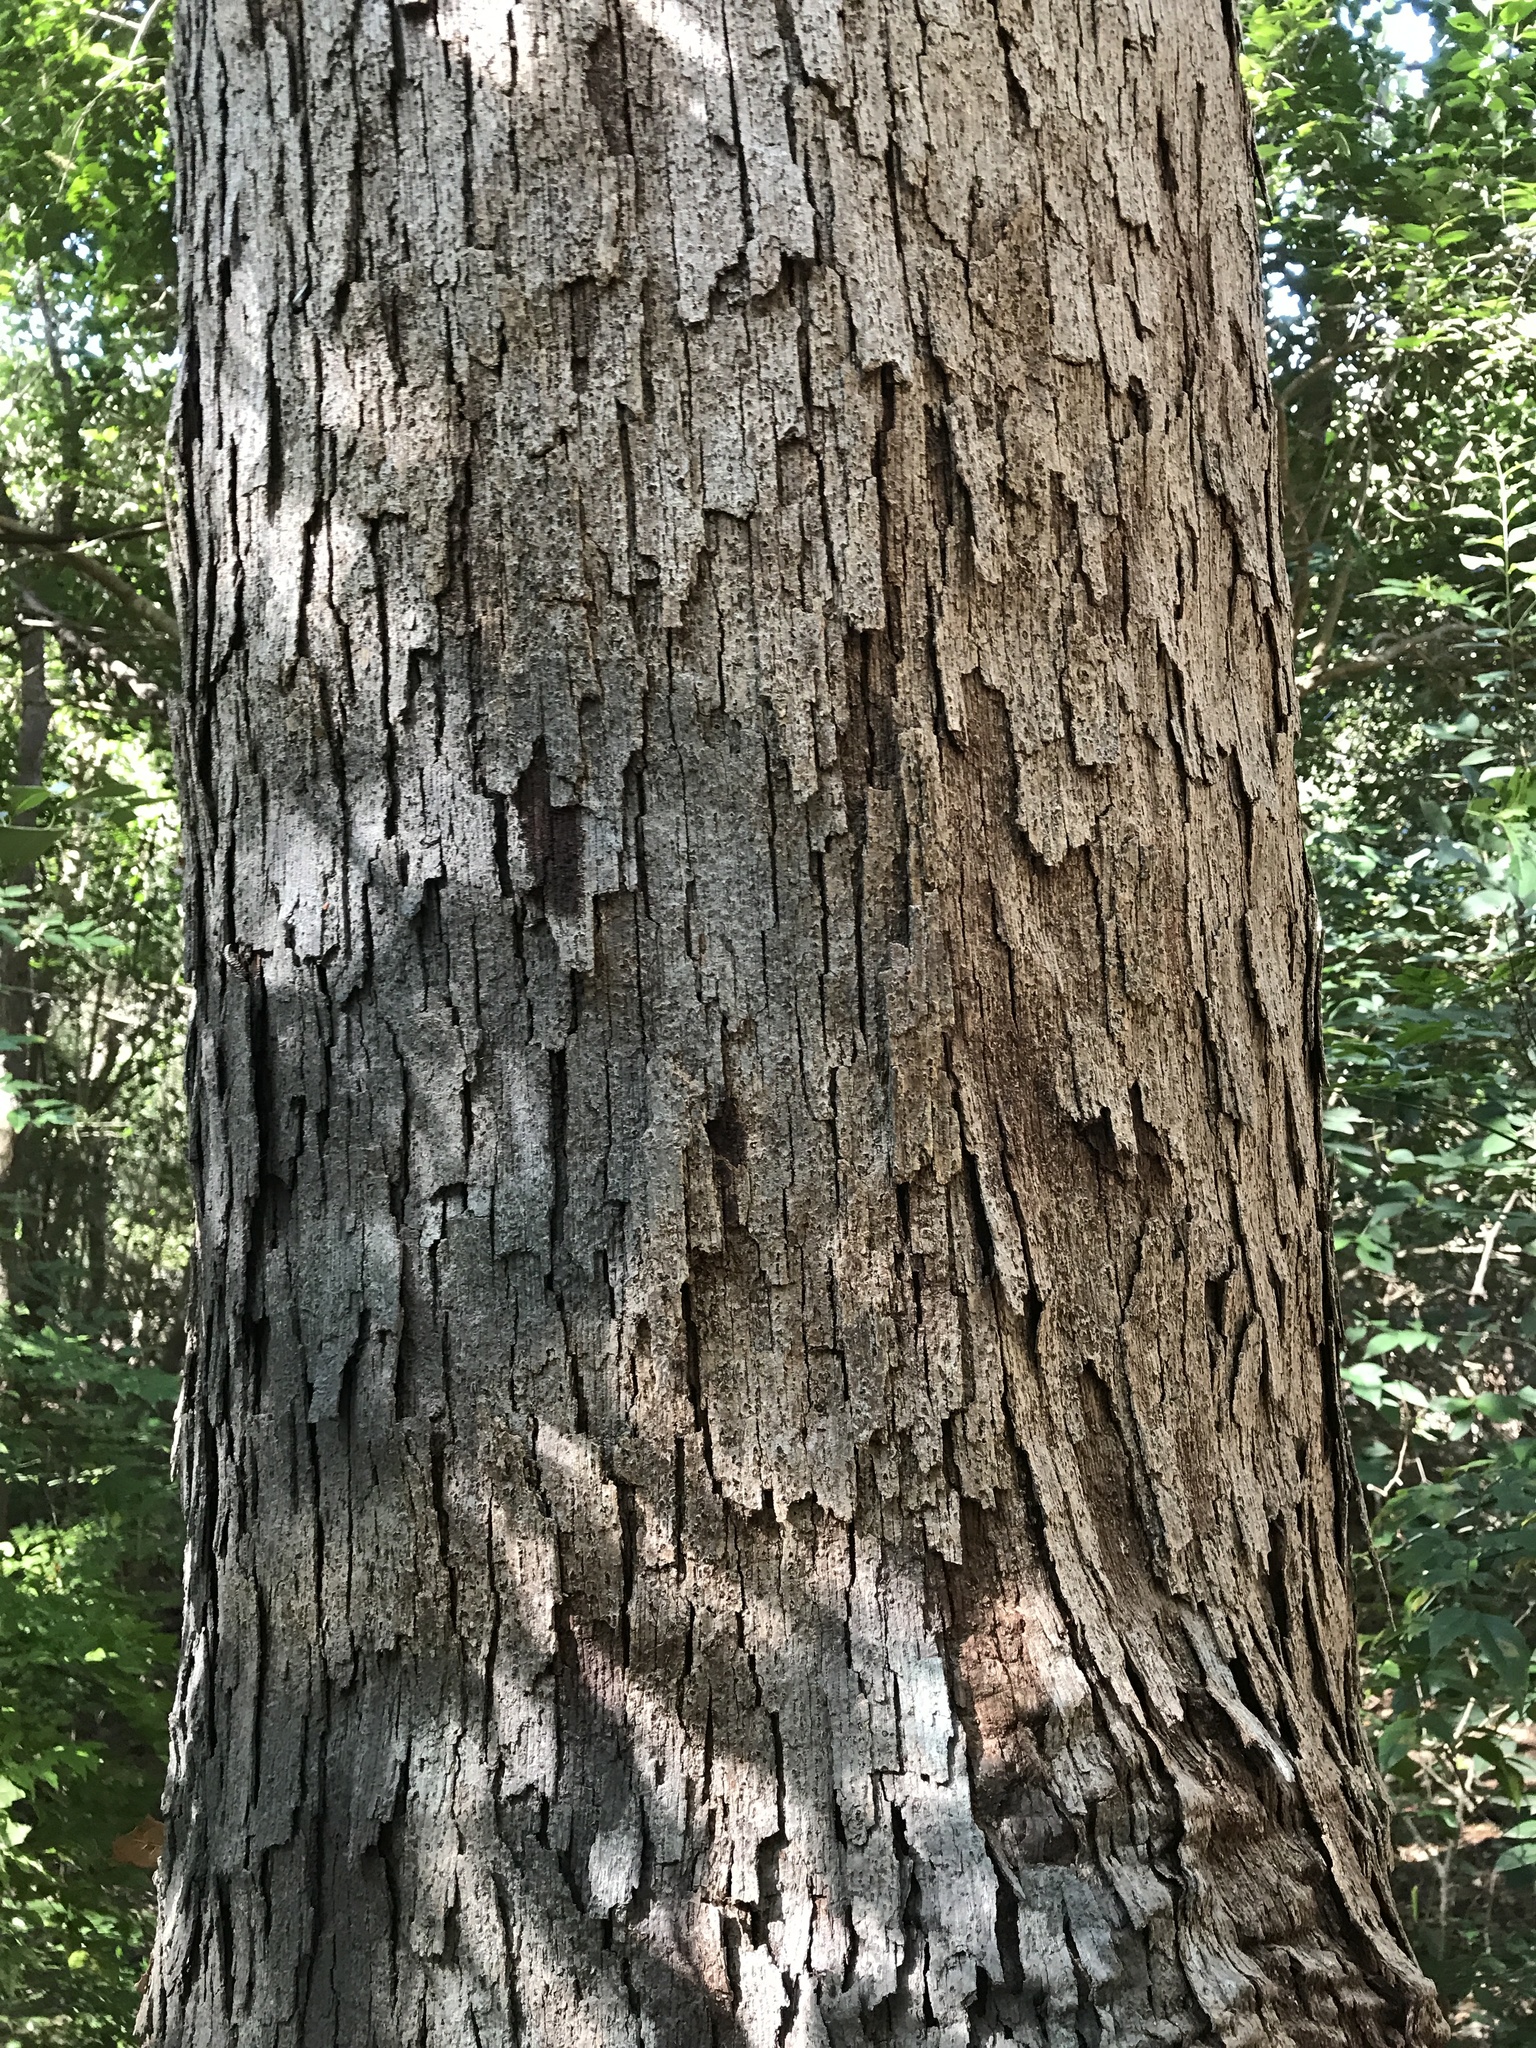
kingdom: Plantae
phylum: Tracheophyta
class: Magnoliopsida
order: Fagales
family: Fagaceae
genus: Quercus
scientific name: Quercus sinuata
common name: Durand oak
